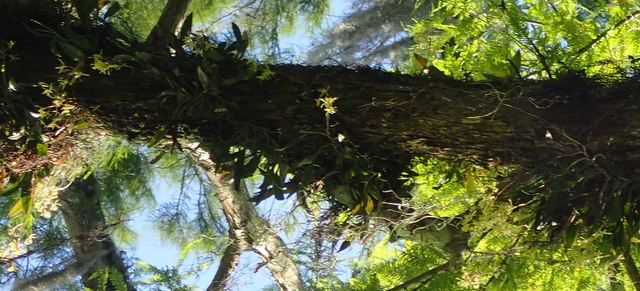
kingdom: Plantae
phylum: Tracheophyta
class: Liliopsida
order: Asparagales
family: Orchidaceae
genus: Epidendrum
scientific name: Epidendrum conopseum
